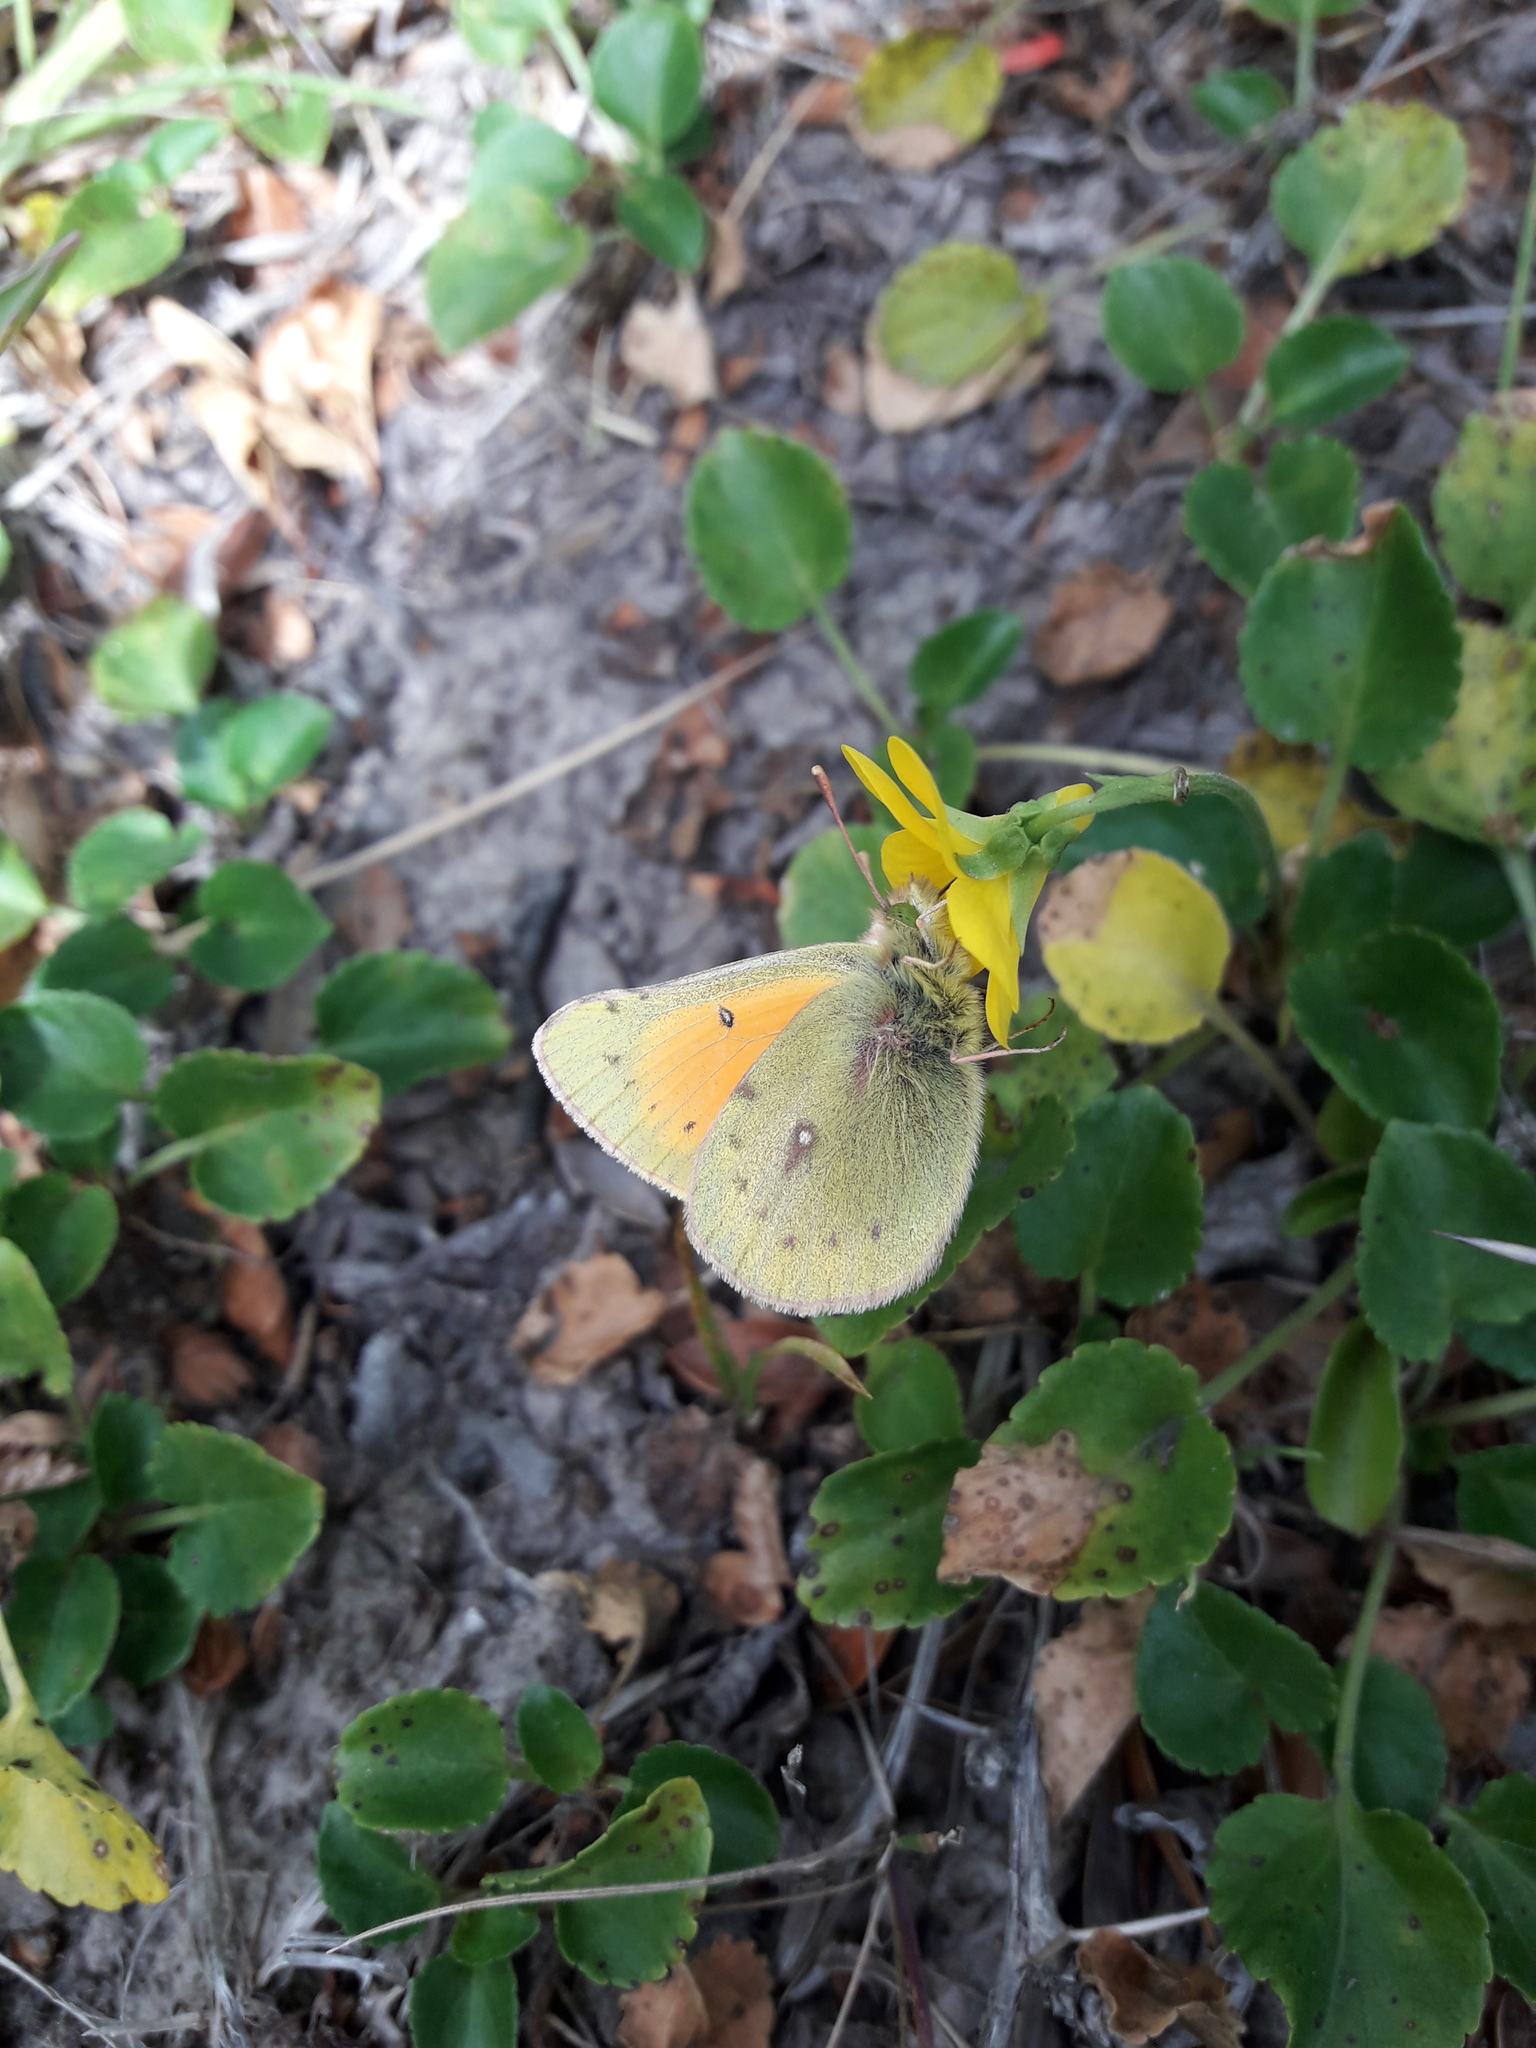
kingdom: Animalia
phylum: Arthropoda
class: Insecta
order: Lepidoptera
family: Pieridae
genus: Colias
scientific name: Colias vauthierii
